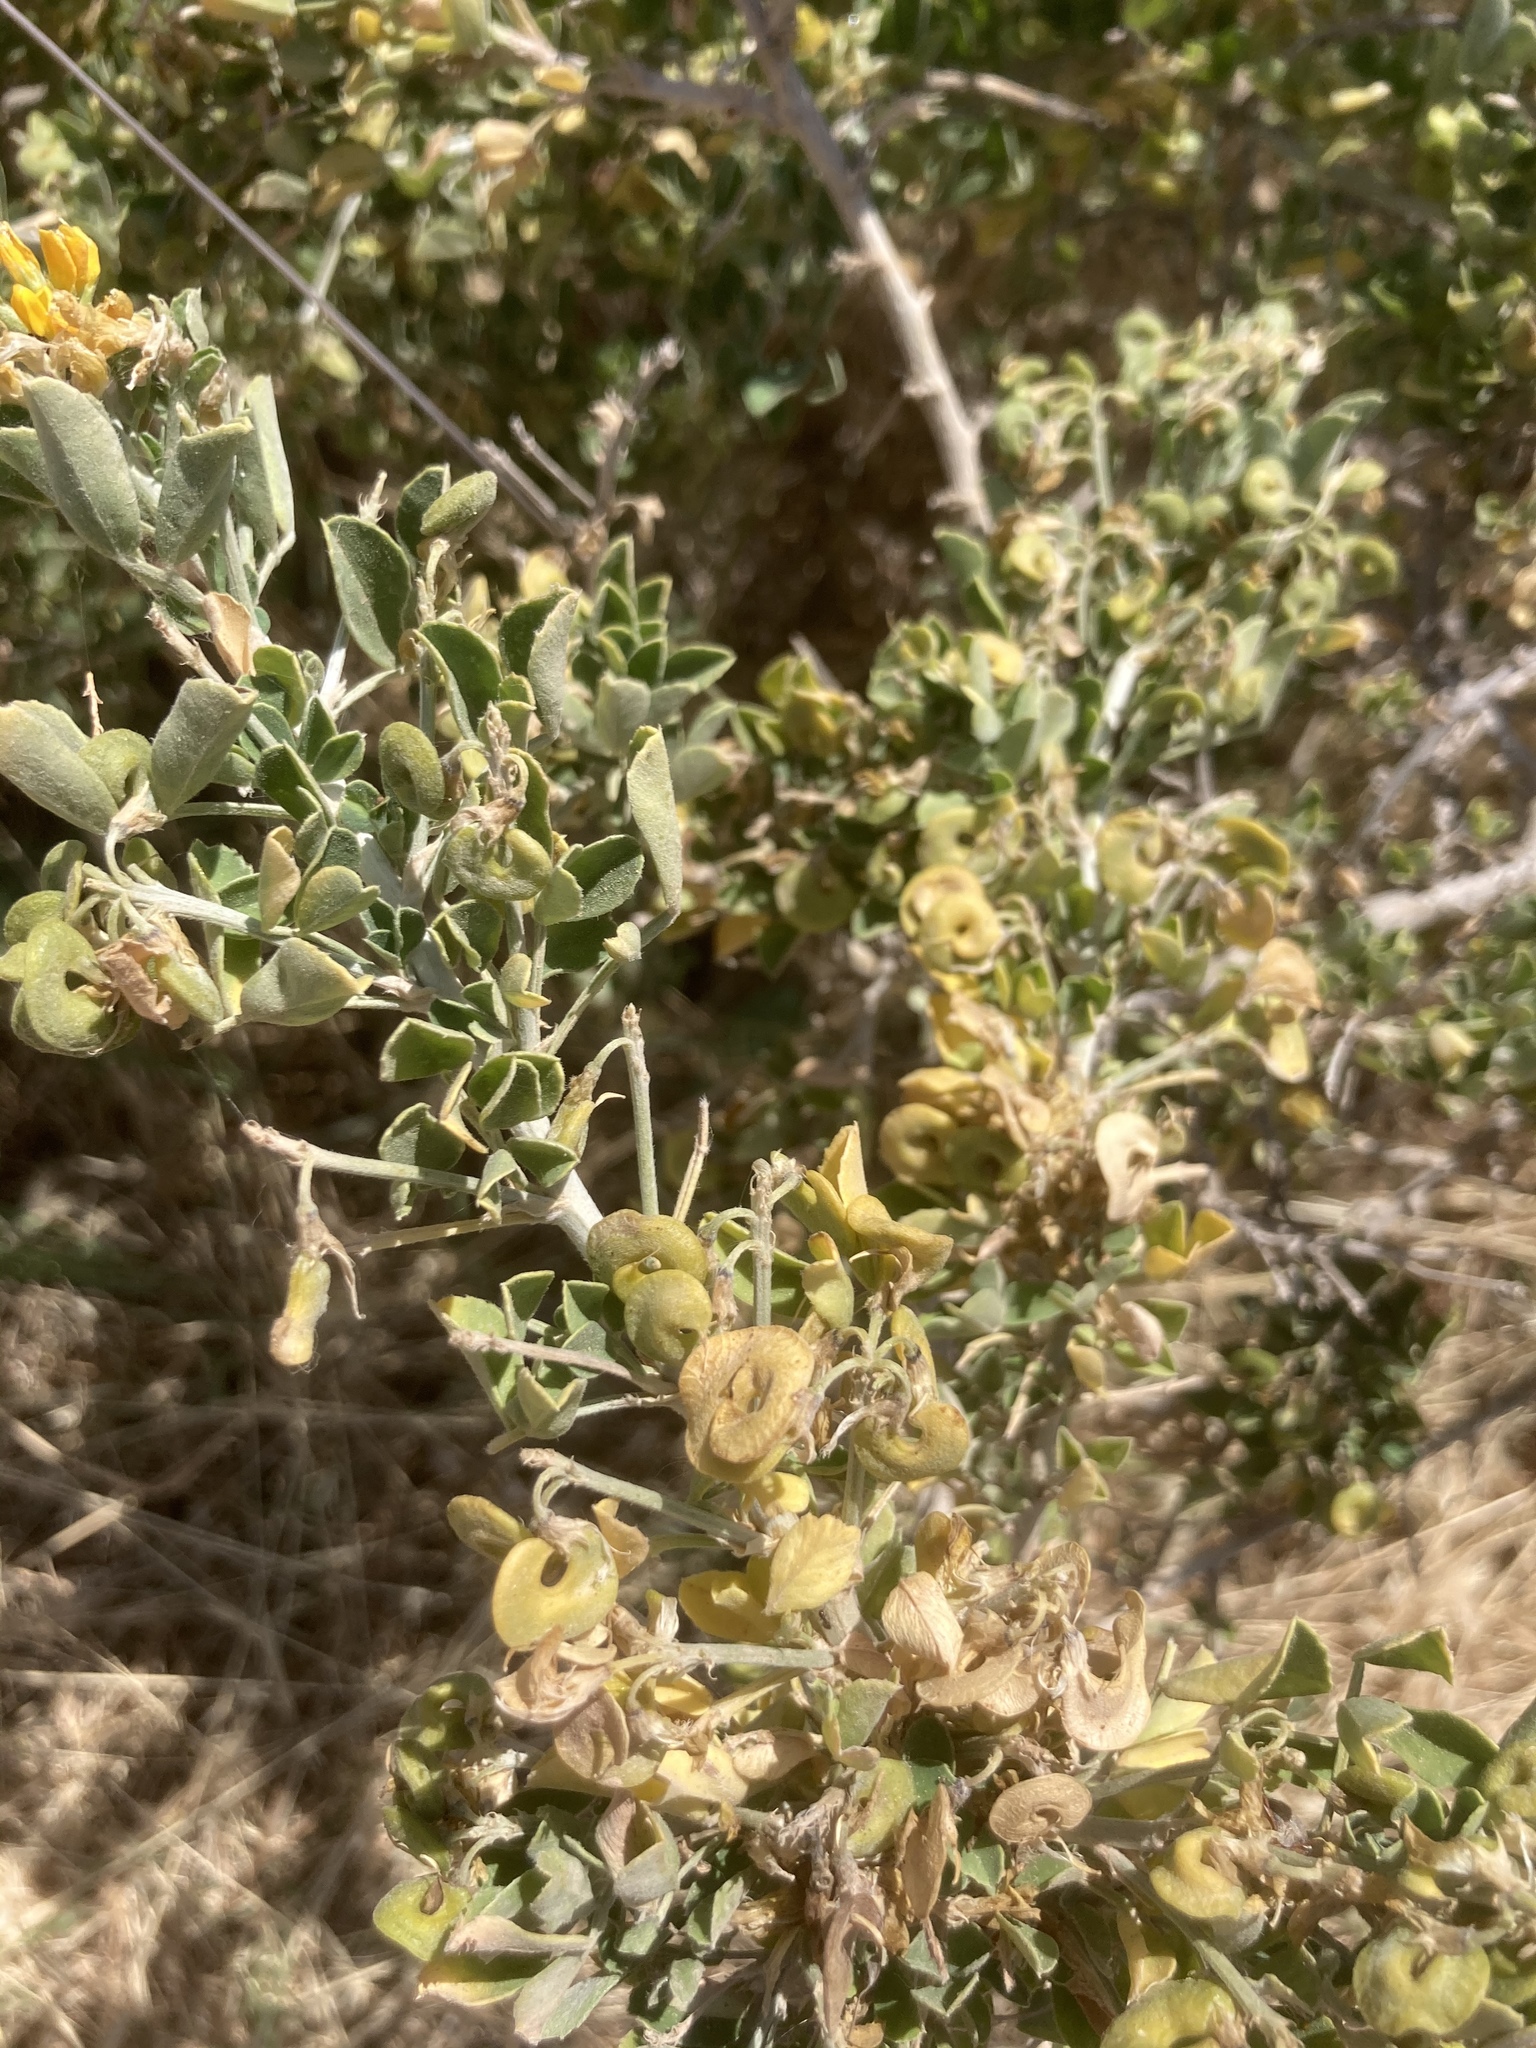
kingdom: Plantae
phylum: Tracheophyta
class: Magnoliopsida
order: Fabales
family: Fabaceae
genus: Medicago
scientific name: Medicago arborea
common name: Moon trefoil
